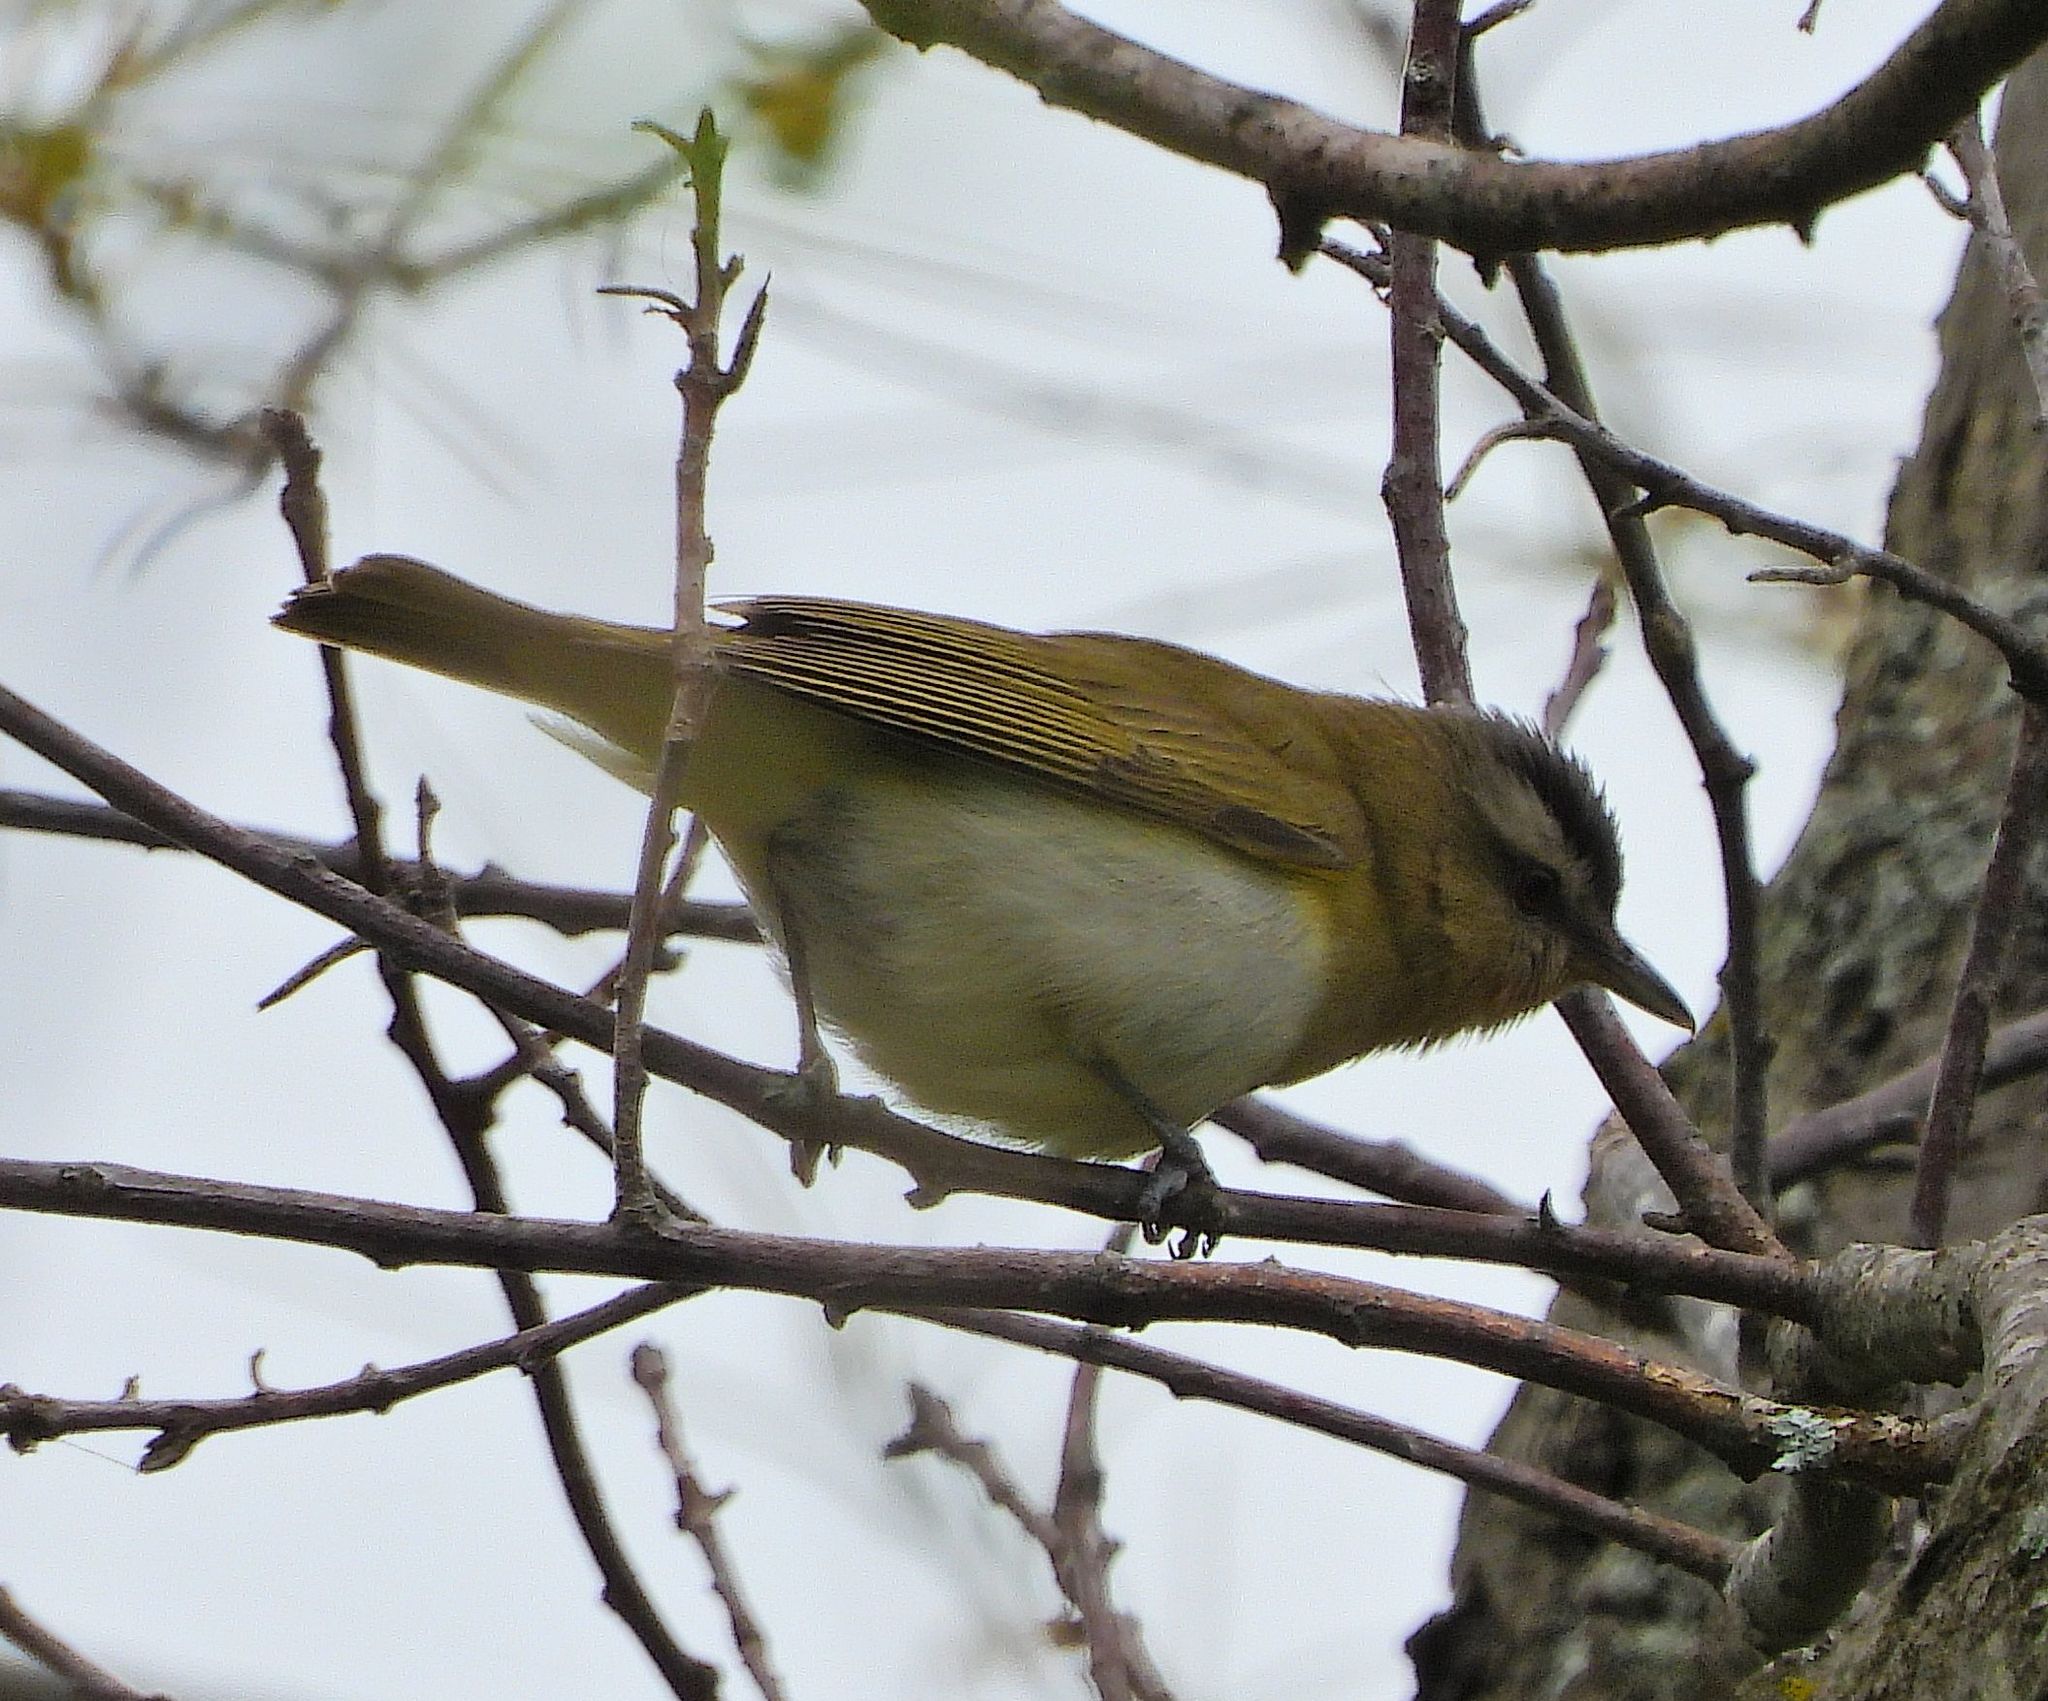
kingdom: Animalia
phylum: Chordata
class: Aves
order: Passeriformes
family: Vireonidae
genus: Vireo
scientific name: Vireo olivaceus
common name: Red-eyed vireo
